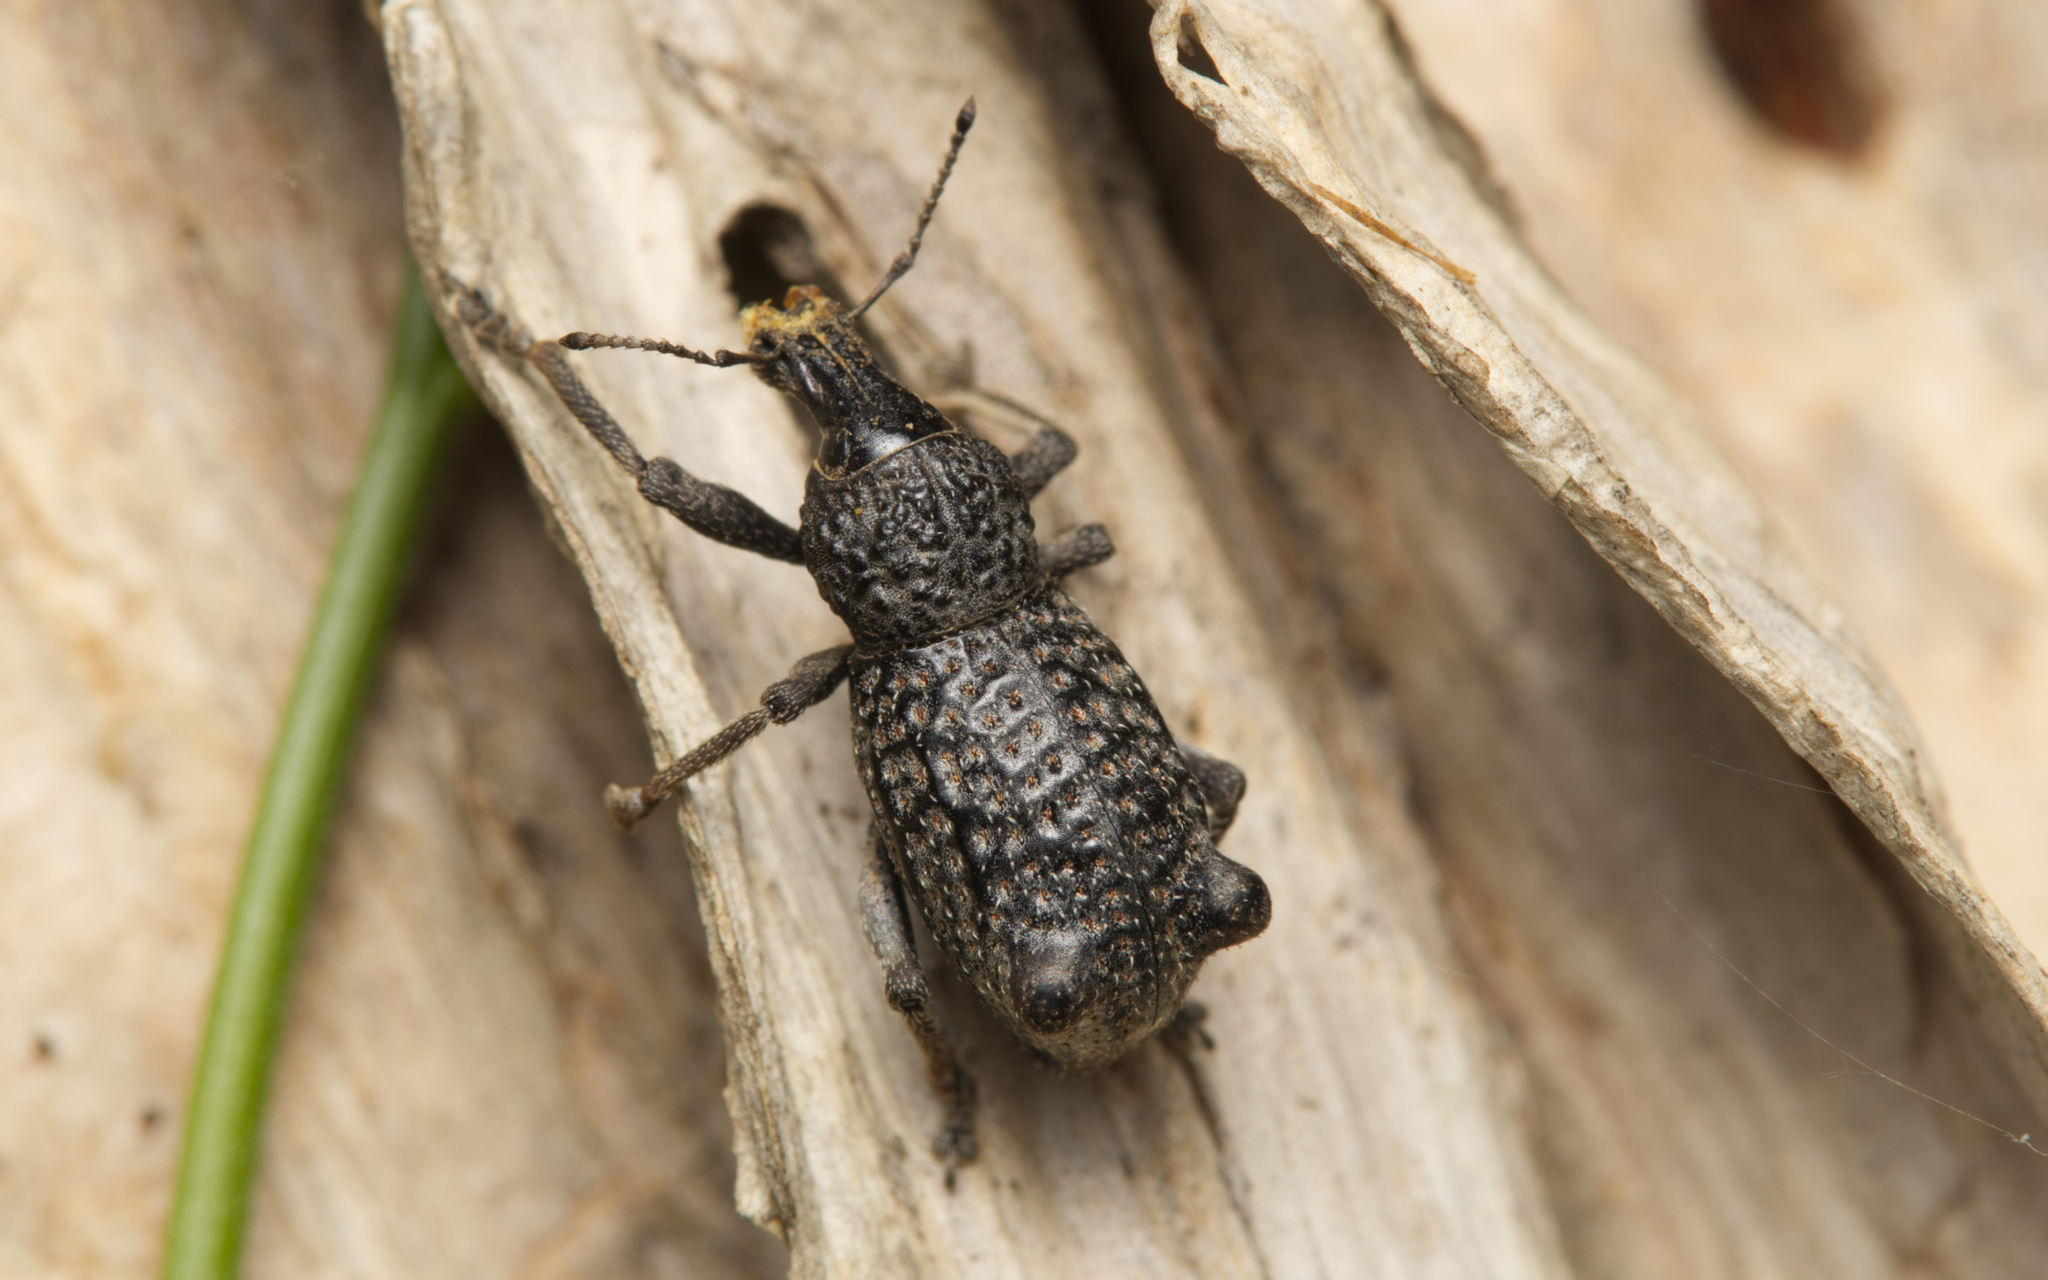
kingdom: Animalia
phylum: Arthropoda
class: Insecta
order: Coleoptera
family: Curculionidae
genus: Zymaus
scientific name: Zymaus binodosus
